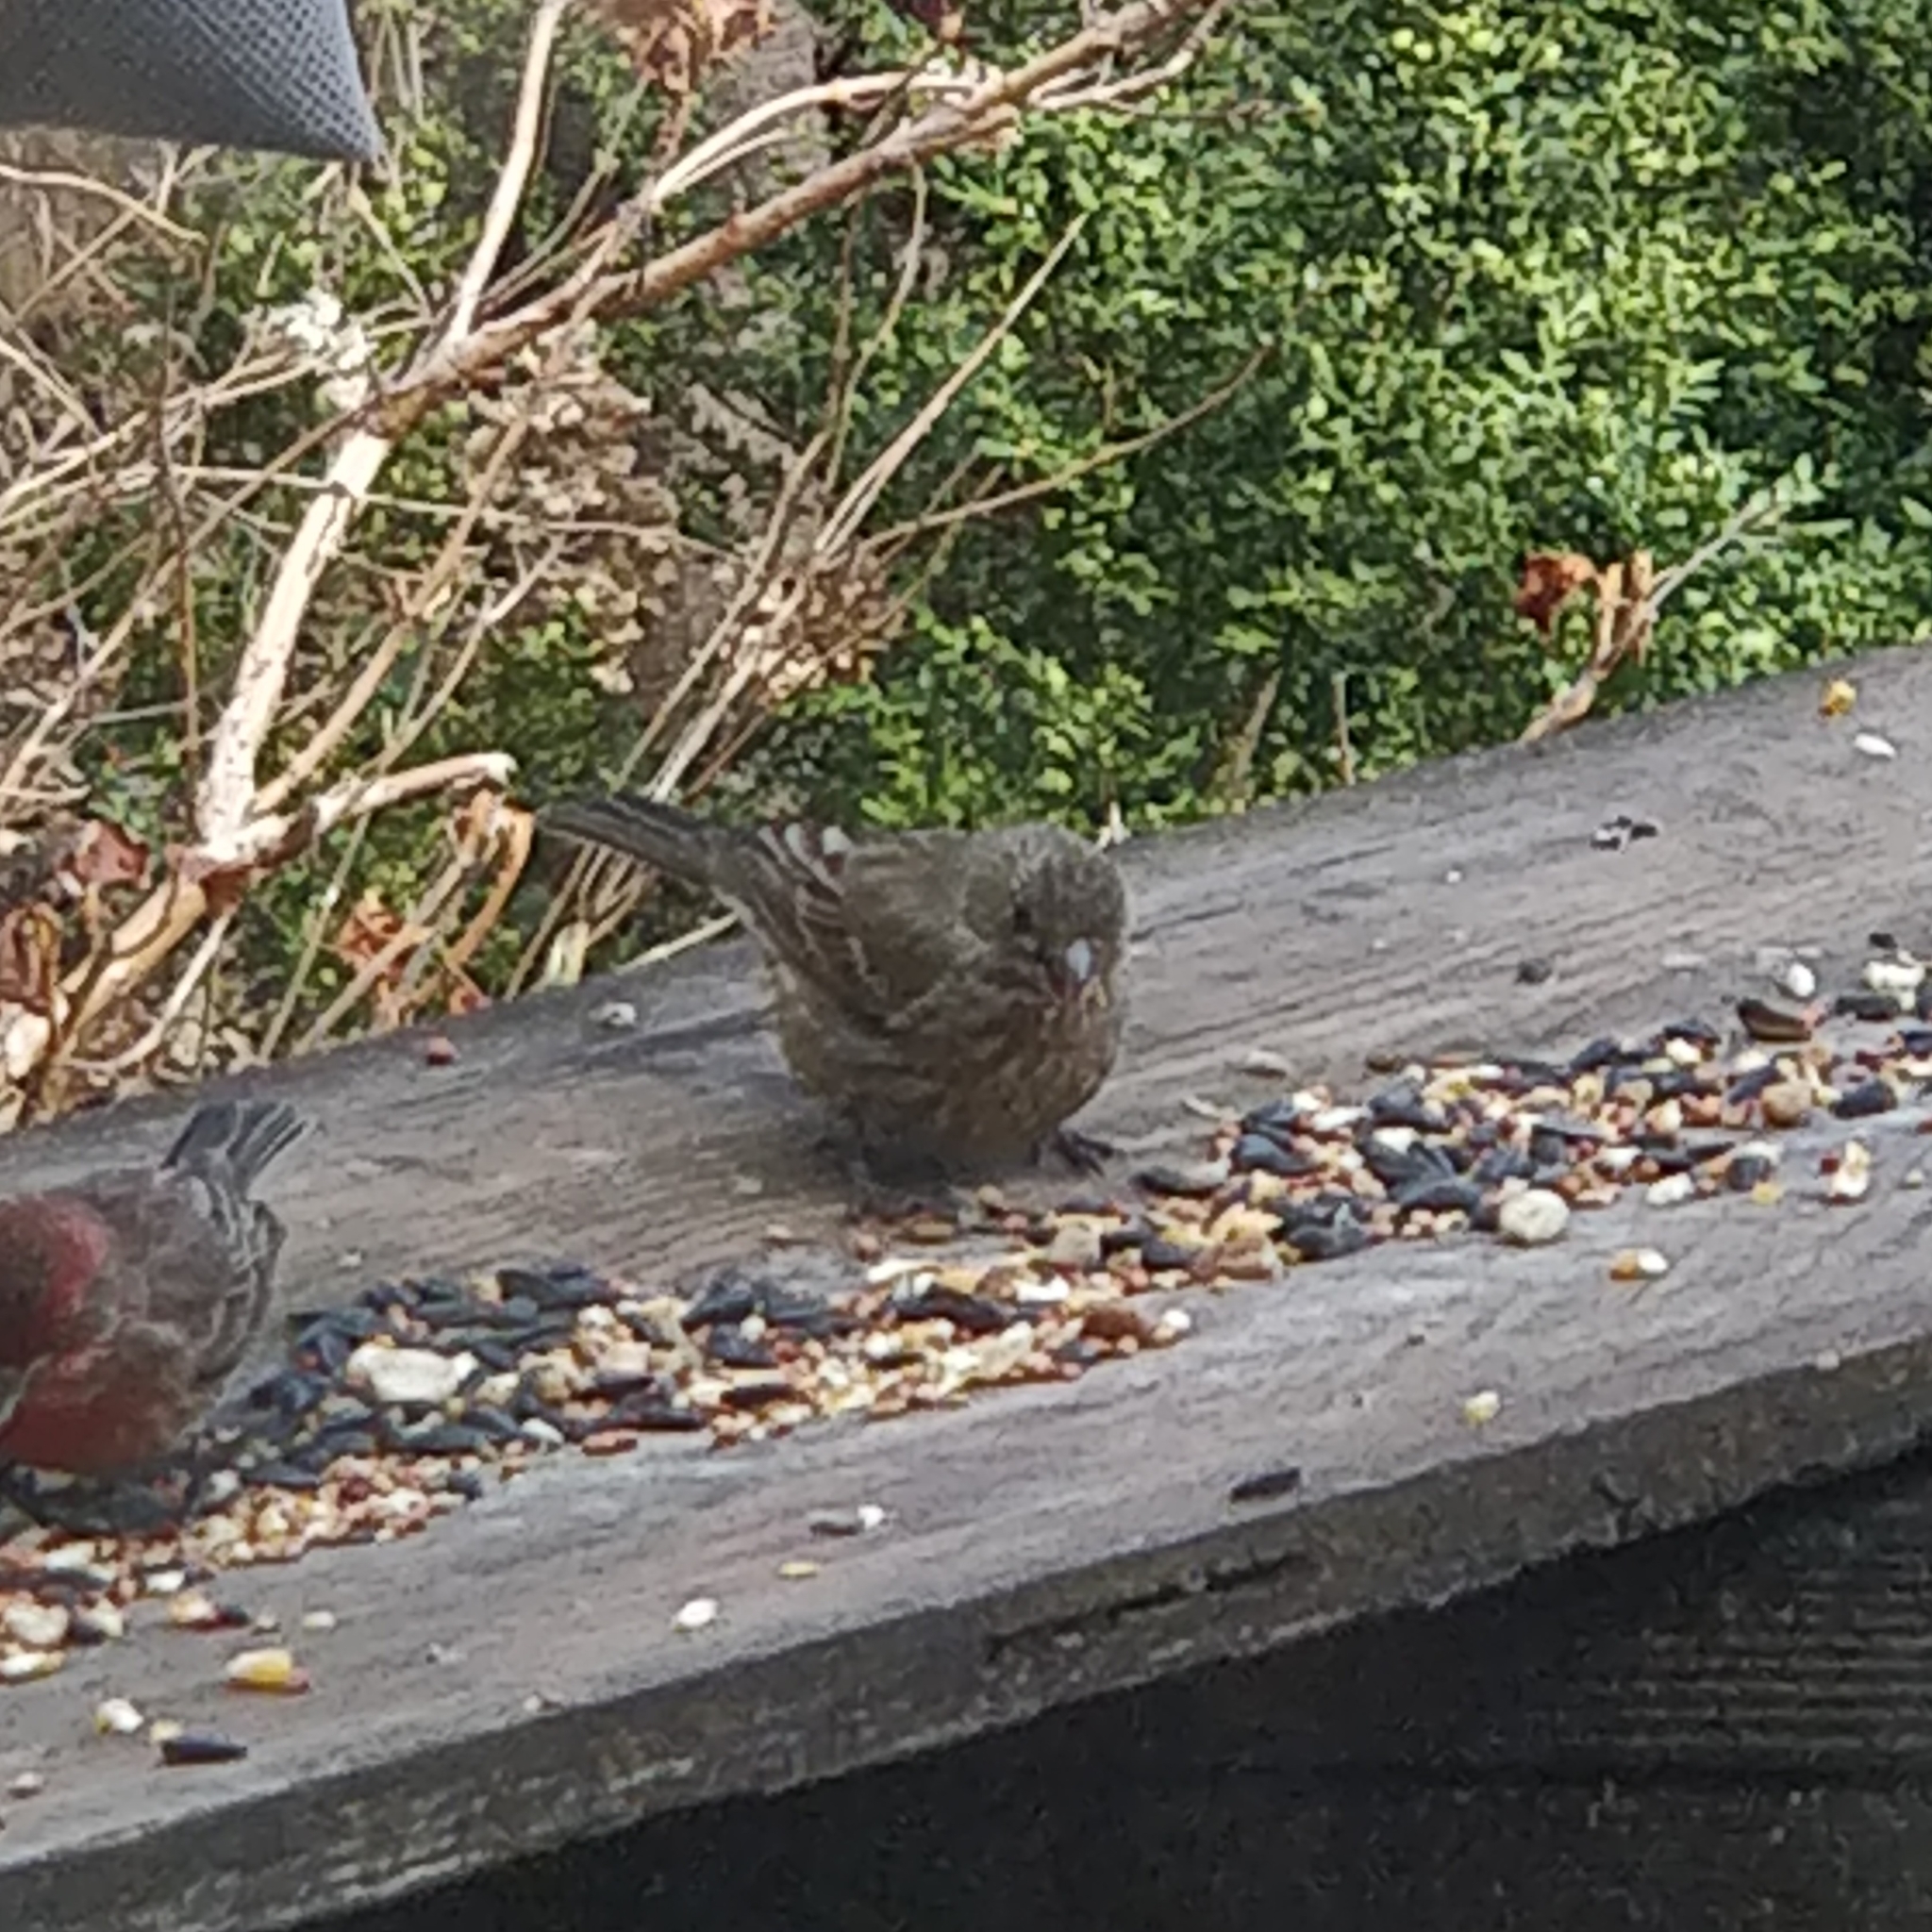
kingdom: Animalia
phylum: Chordata
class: Aves
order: Passeriformes
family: Fringillidae
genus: Haemorhous
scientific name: Haemorhous mexicanus
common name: House finch
